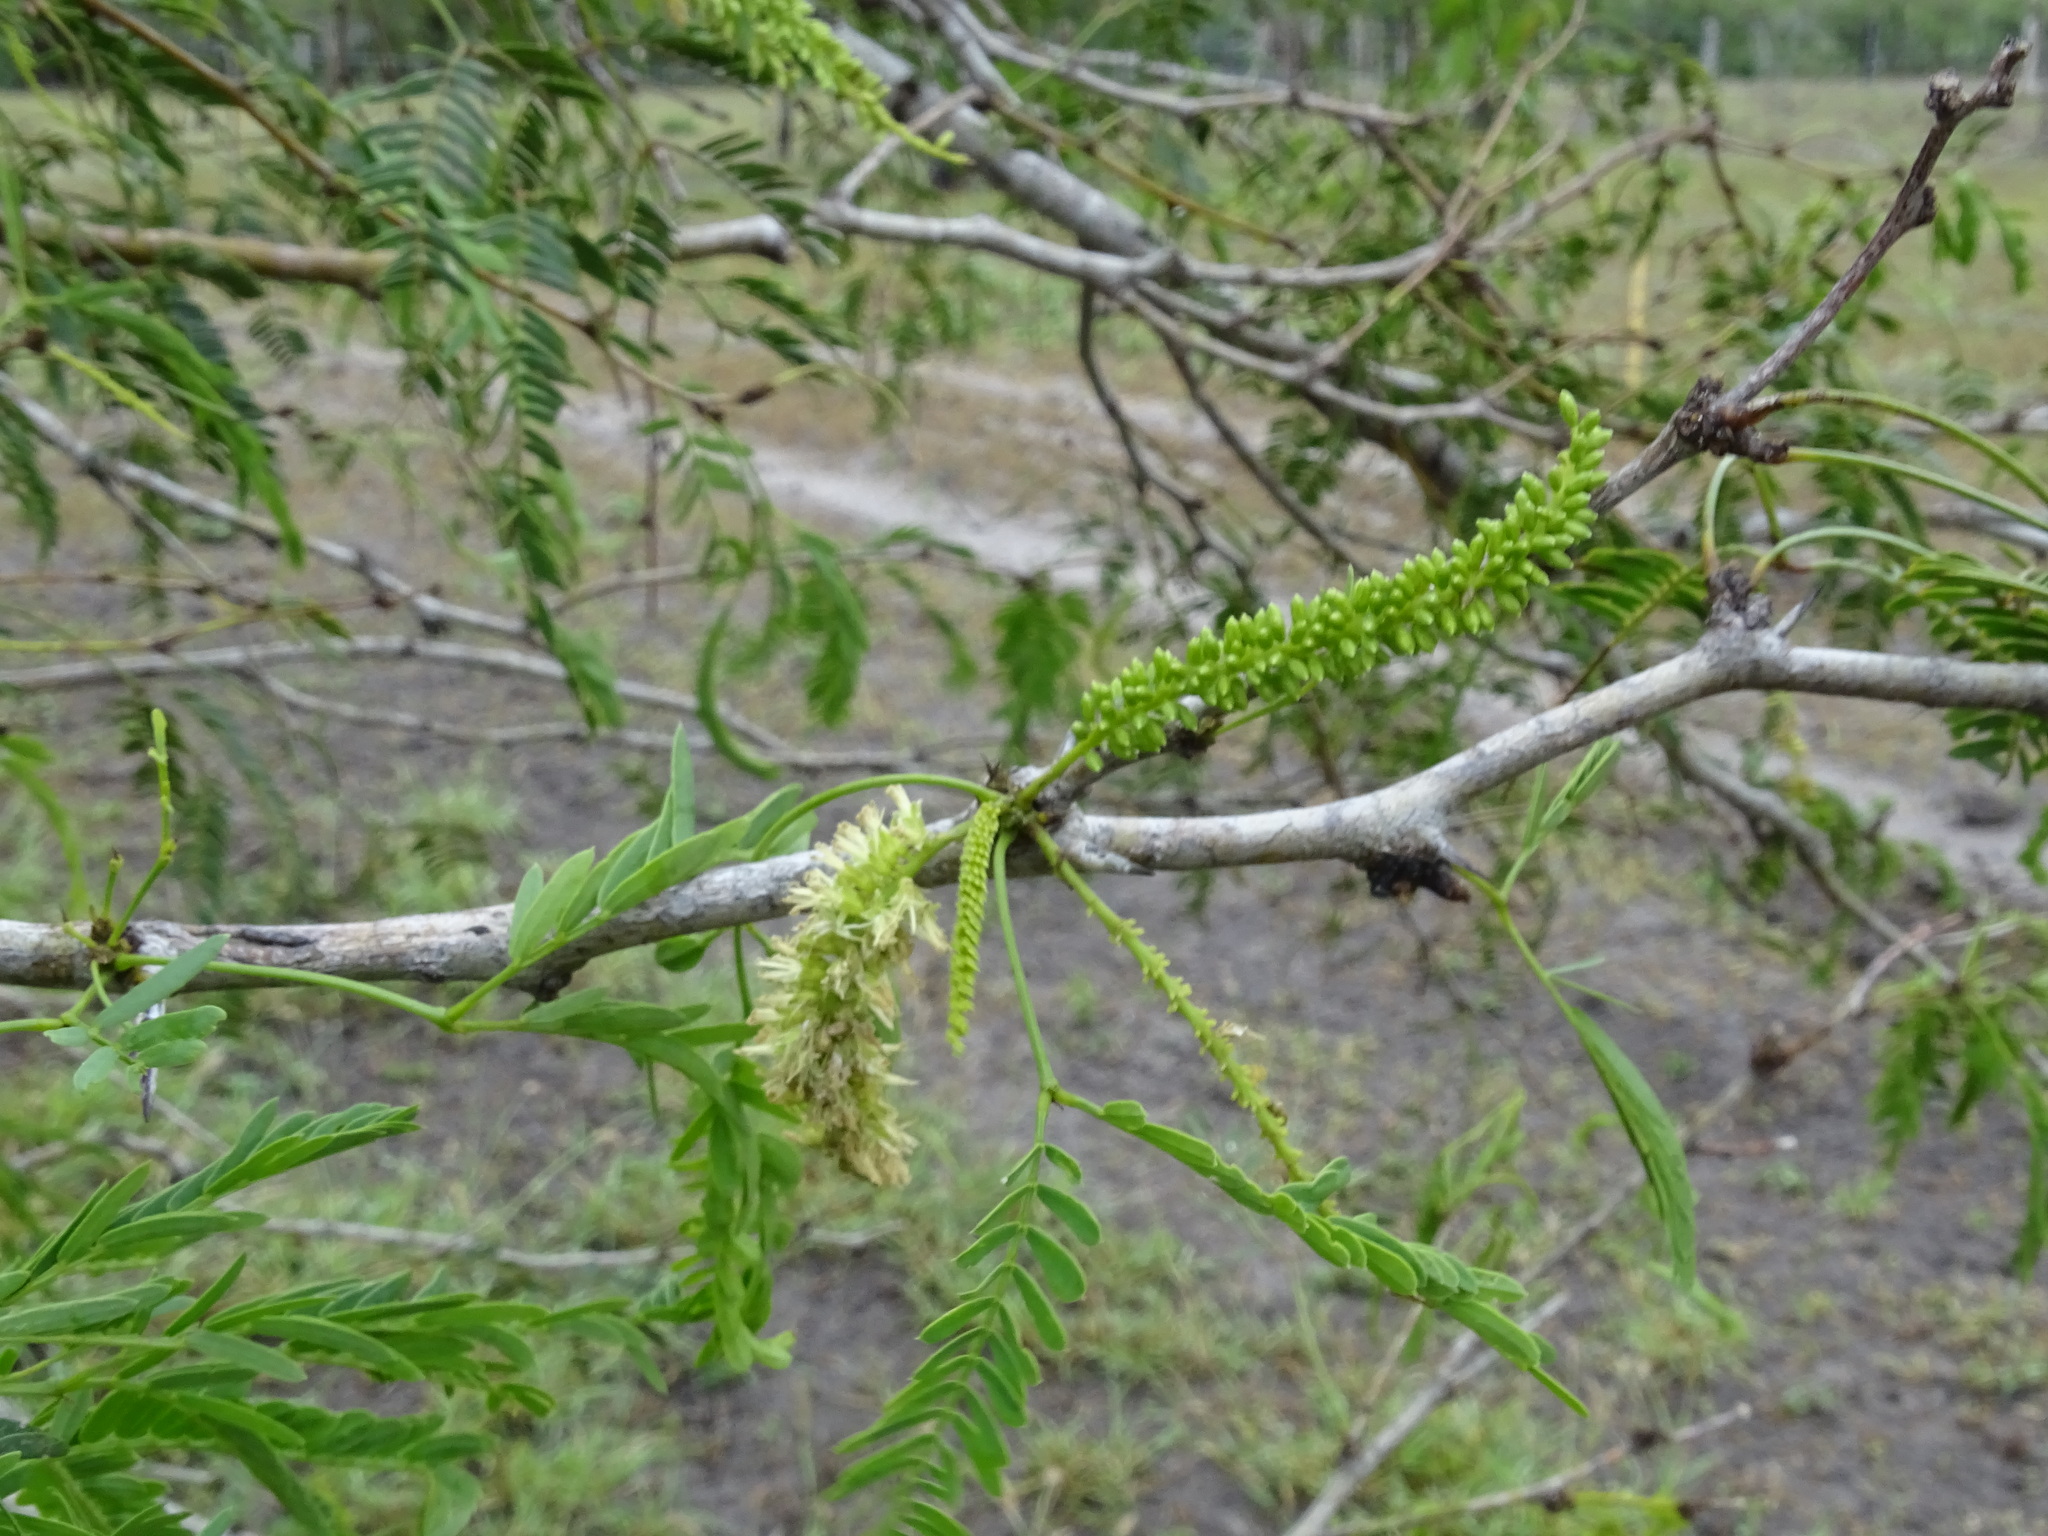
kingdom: Plantae
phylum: Tracheophyta
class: Magnoliopsida
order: Fabales
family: Fabaceae
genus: Prosopis
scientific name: Prosopis glandulosa
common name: Honey mesquite
